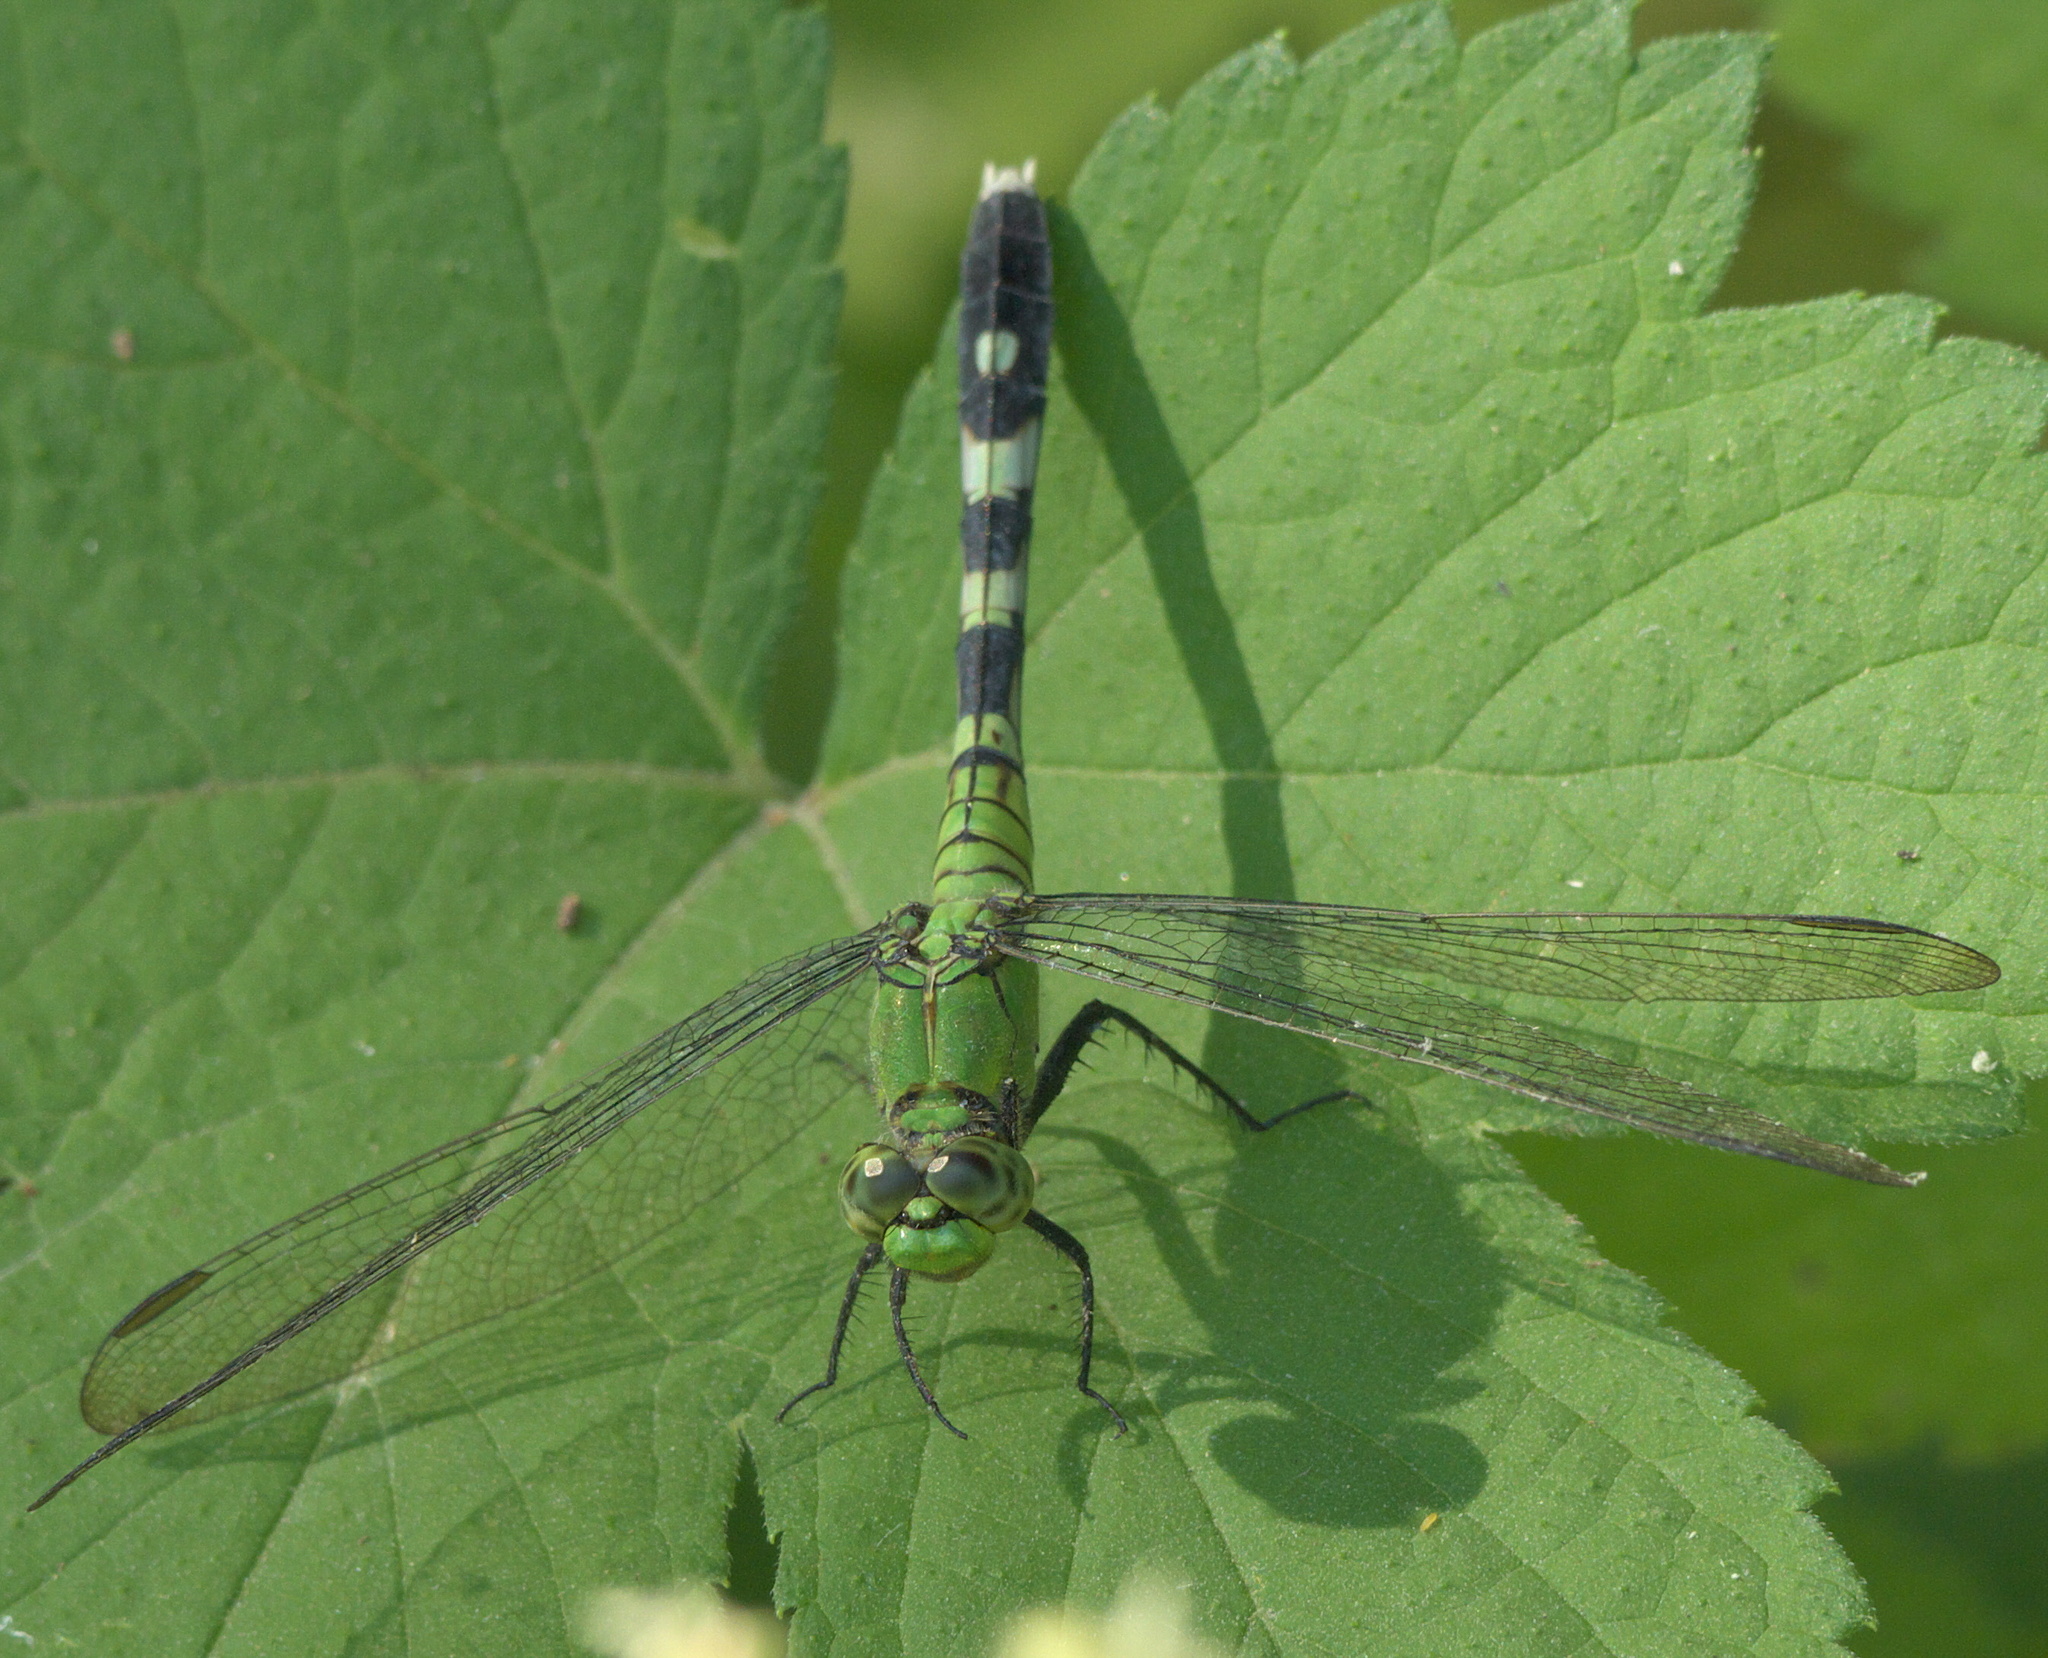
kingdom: Animalia
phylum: Arthropoda
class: Insecta
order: Odonata
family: Libellulidae
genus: Erythemis
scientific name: Erythemis simplicicollis
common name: Eastern pondhawk
